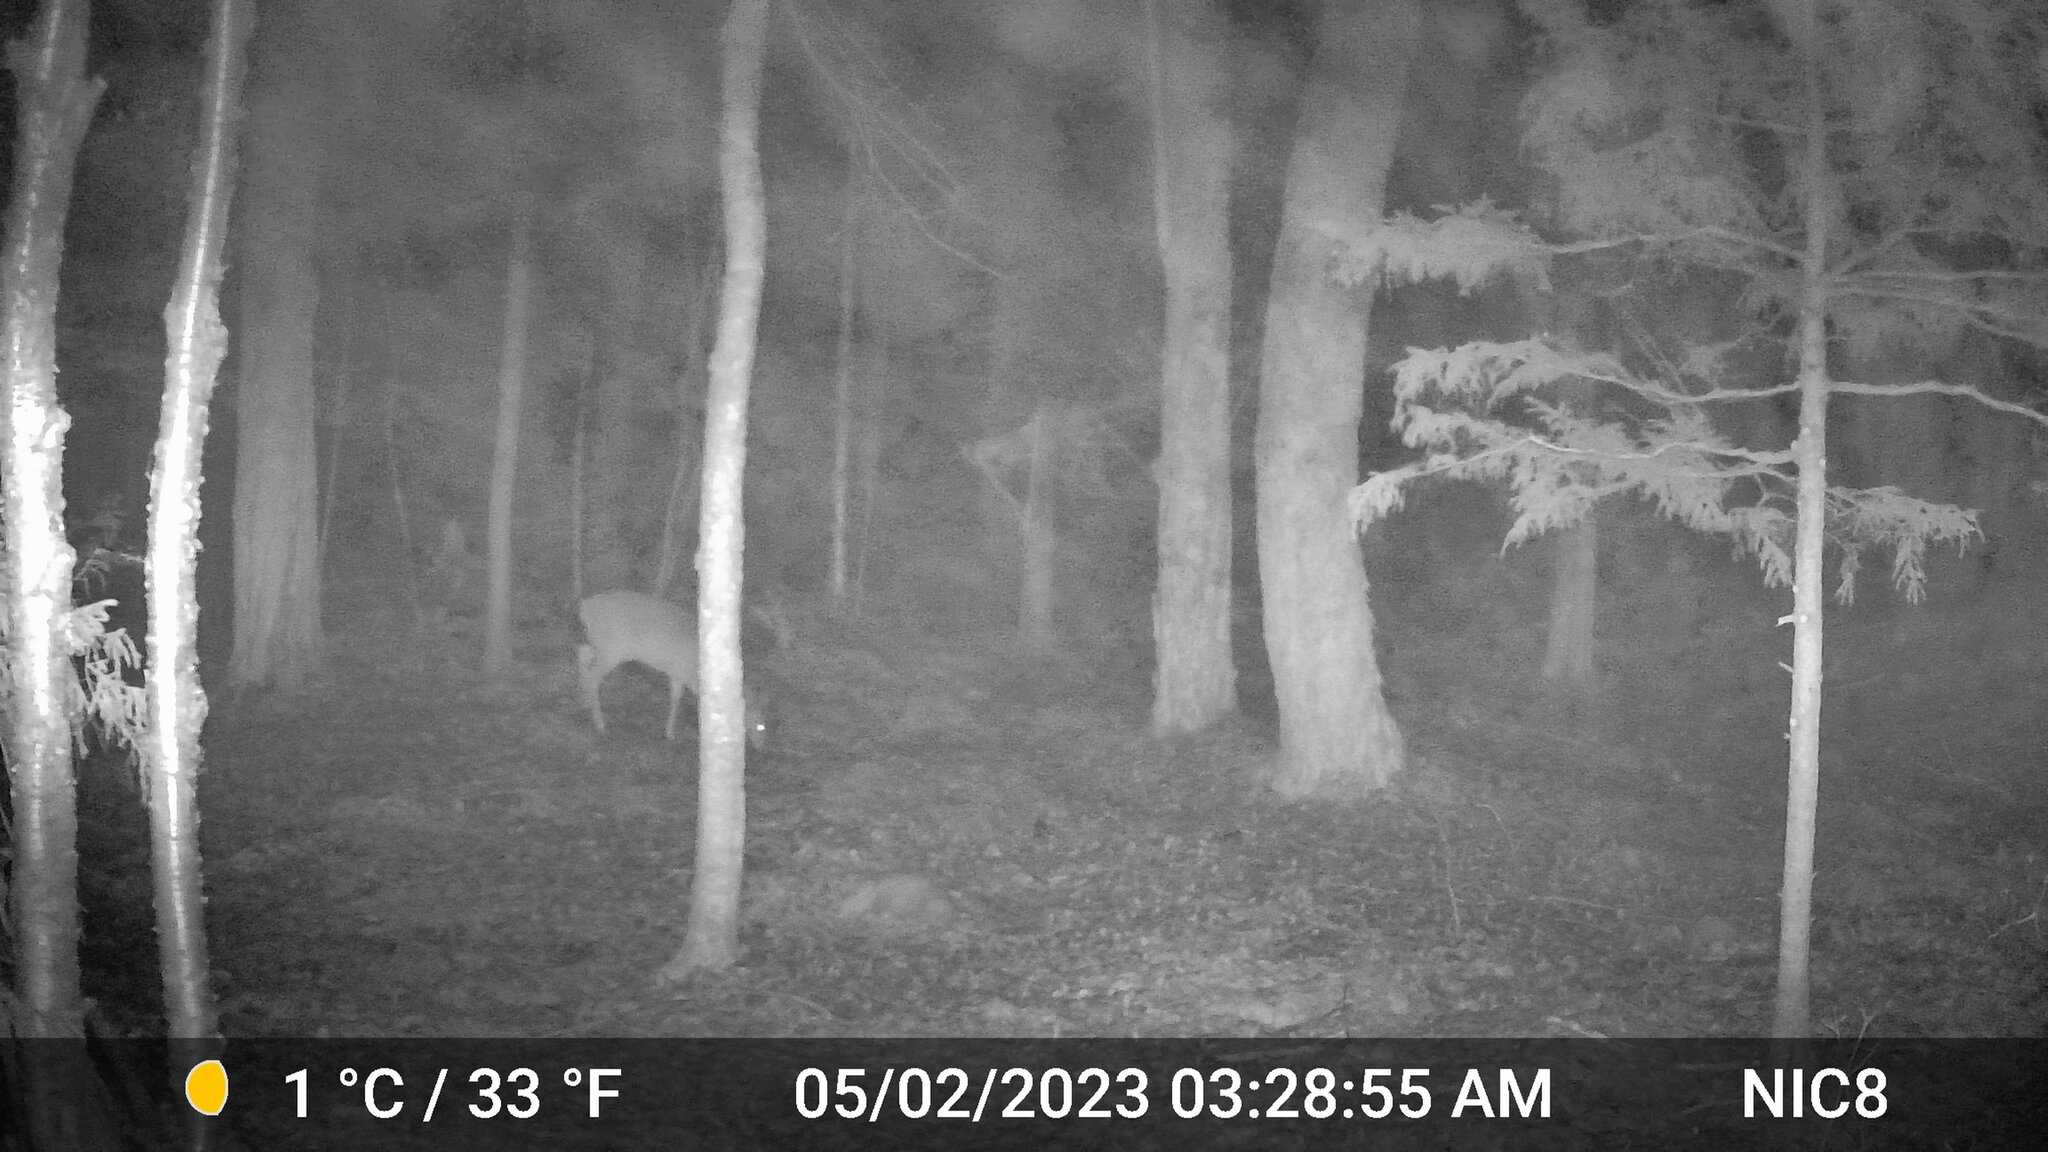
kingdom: Animalia
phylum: Chordata
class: Mammalia
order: Artiodactyla
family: Cervidae
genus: Odocoileus
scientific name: Odocoileus virginianus
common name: White-tailed deer
